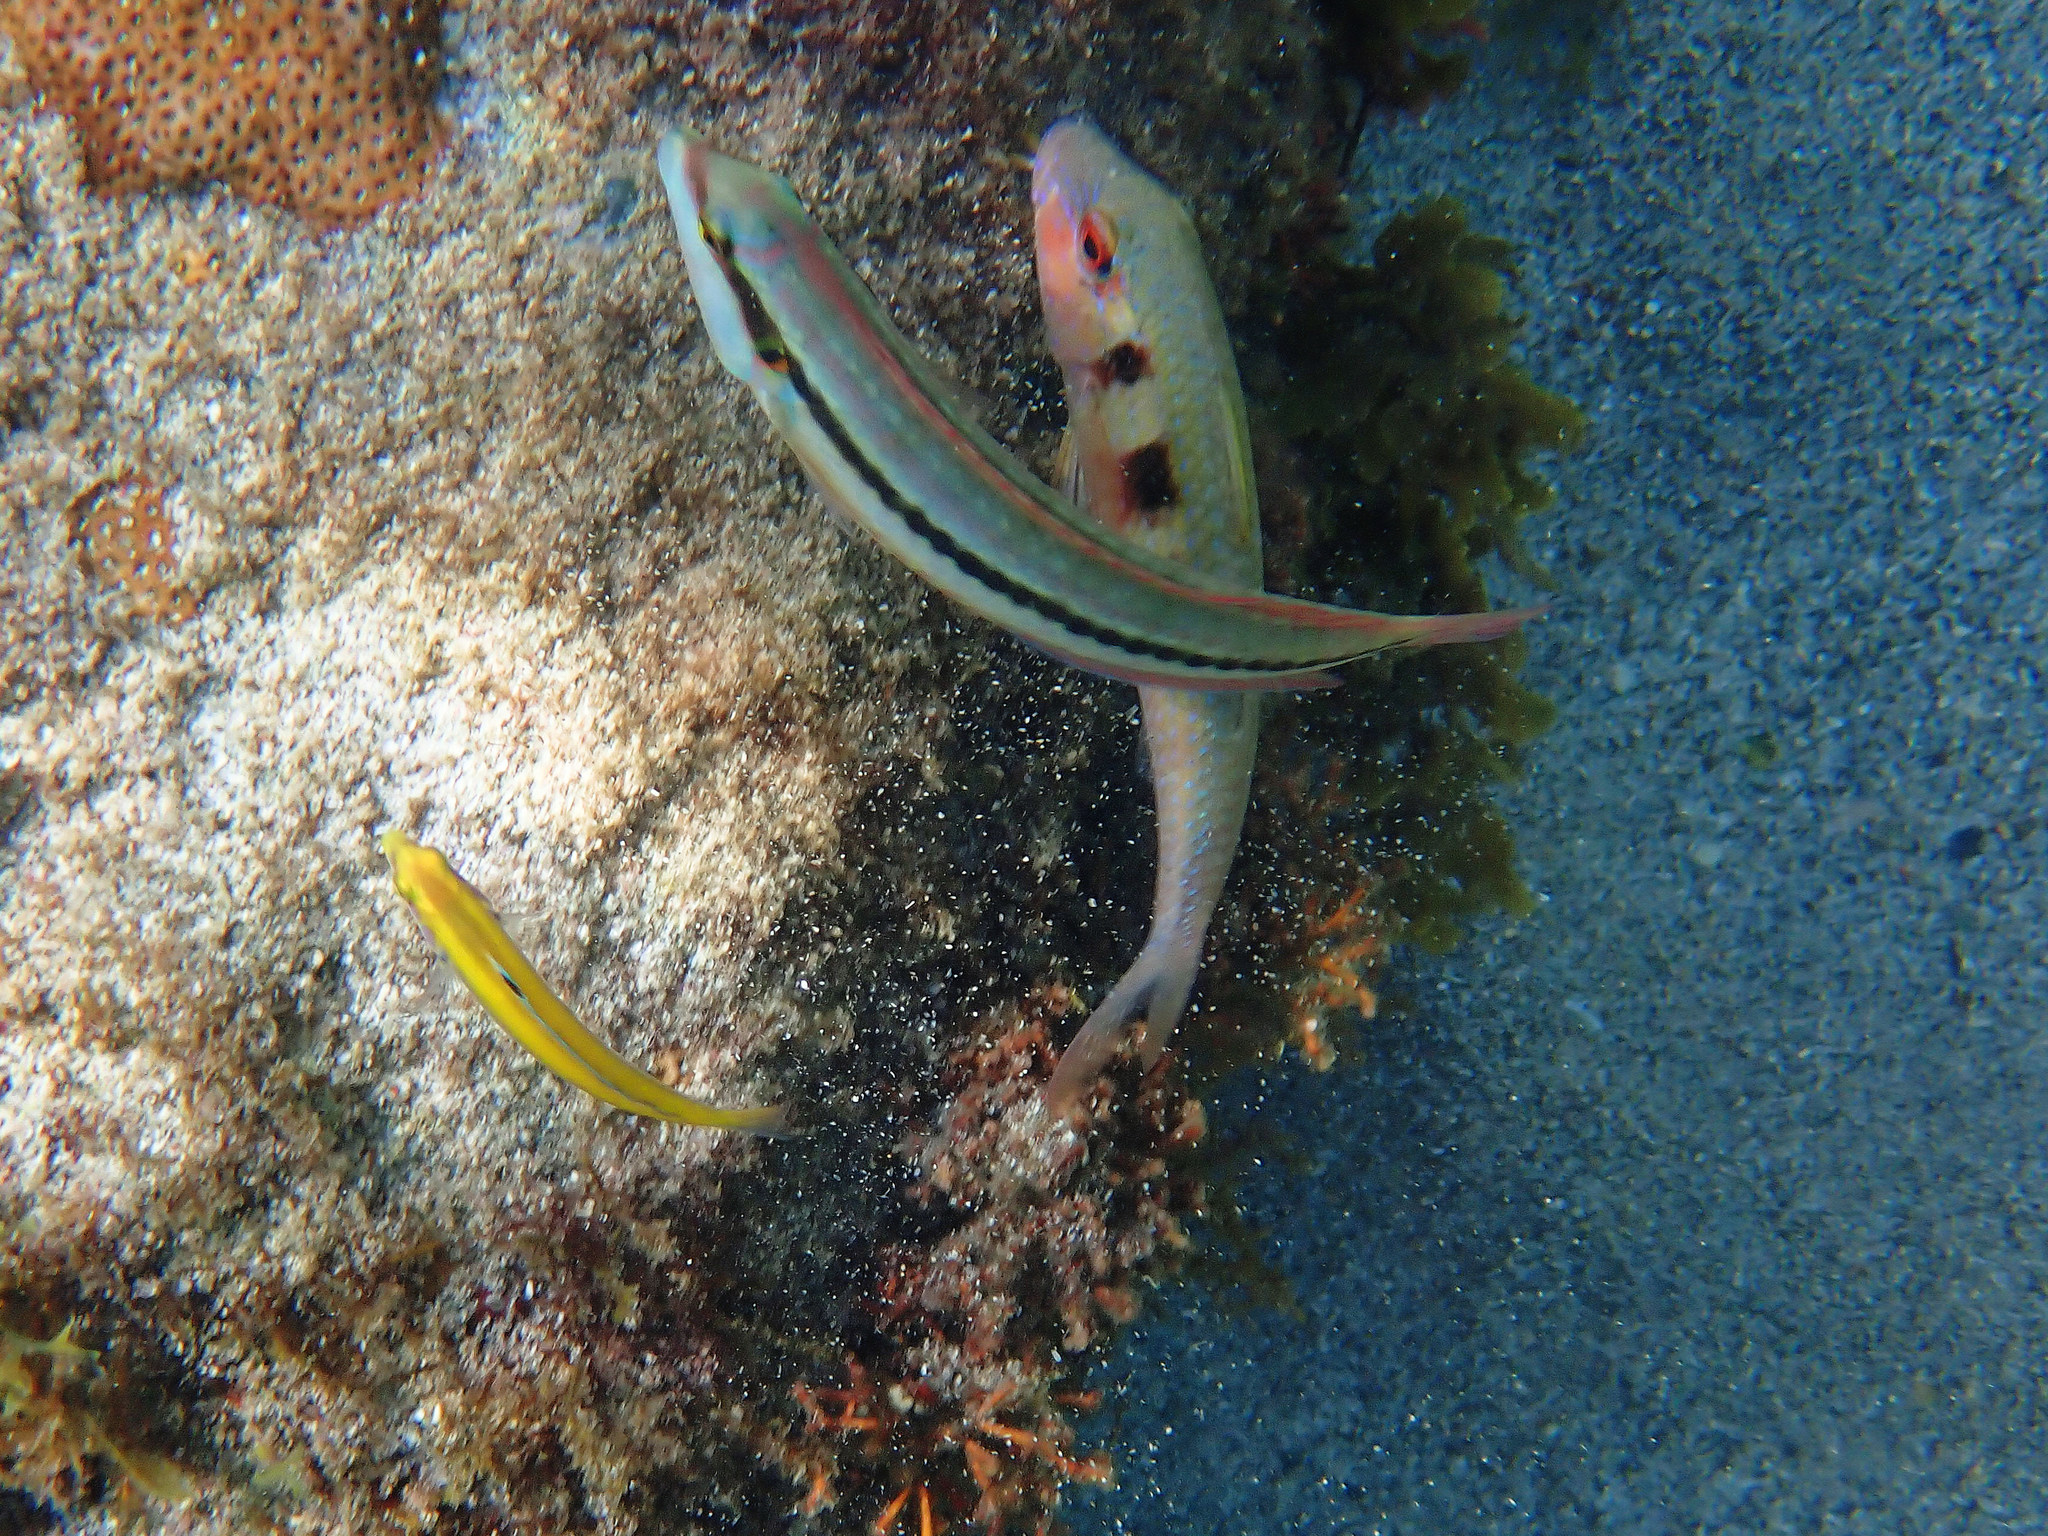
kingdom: Animalia
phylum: Chordata
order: Perciformes
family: Labridae
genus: Halichoeres
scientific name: Halichoeres bivittatus
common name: Slippery dick
